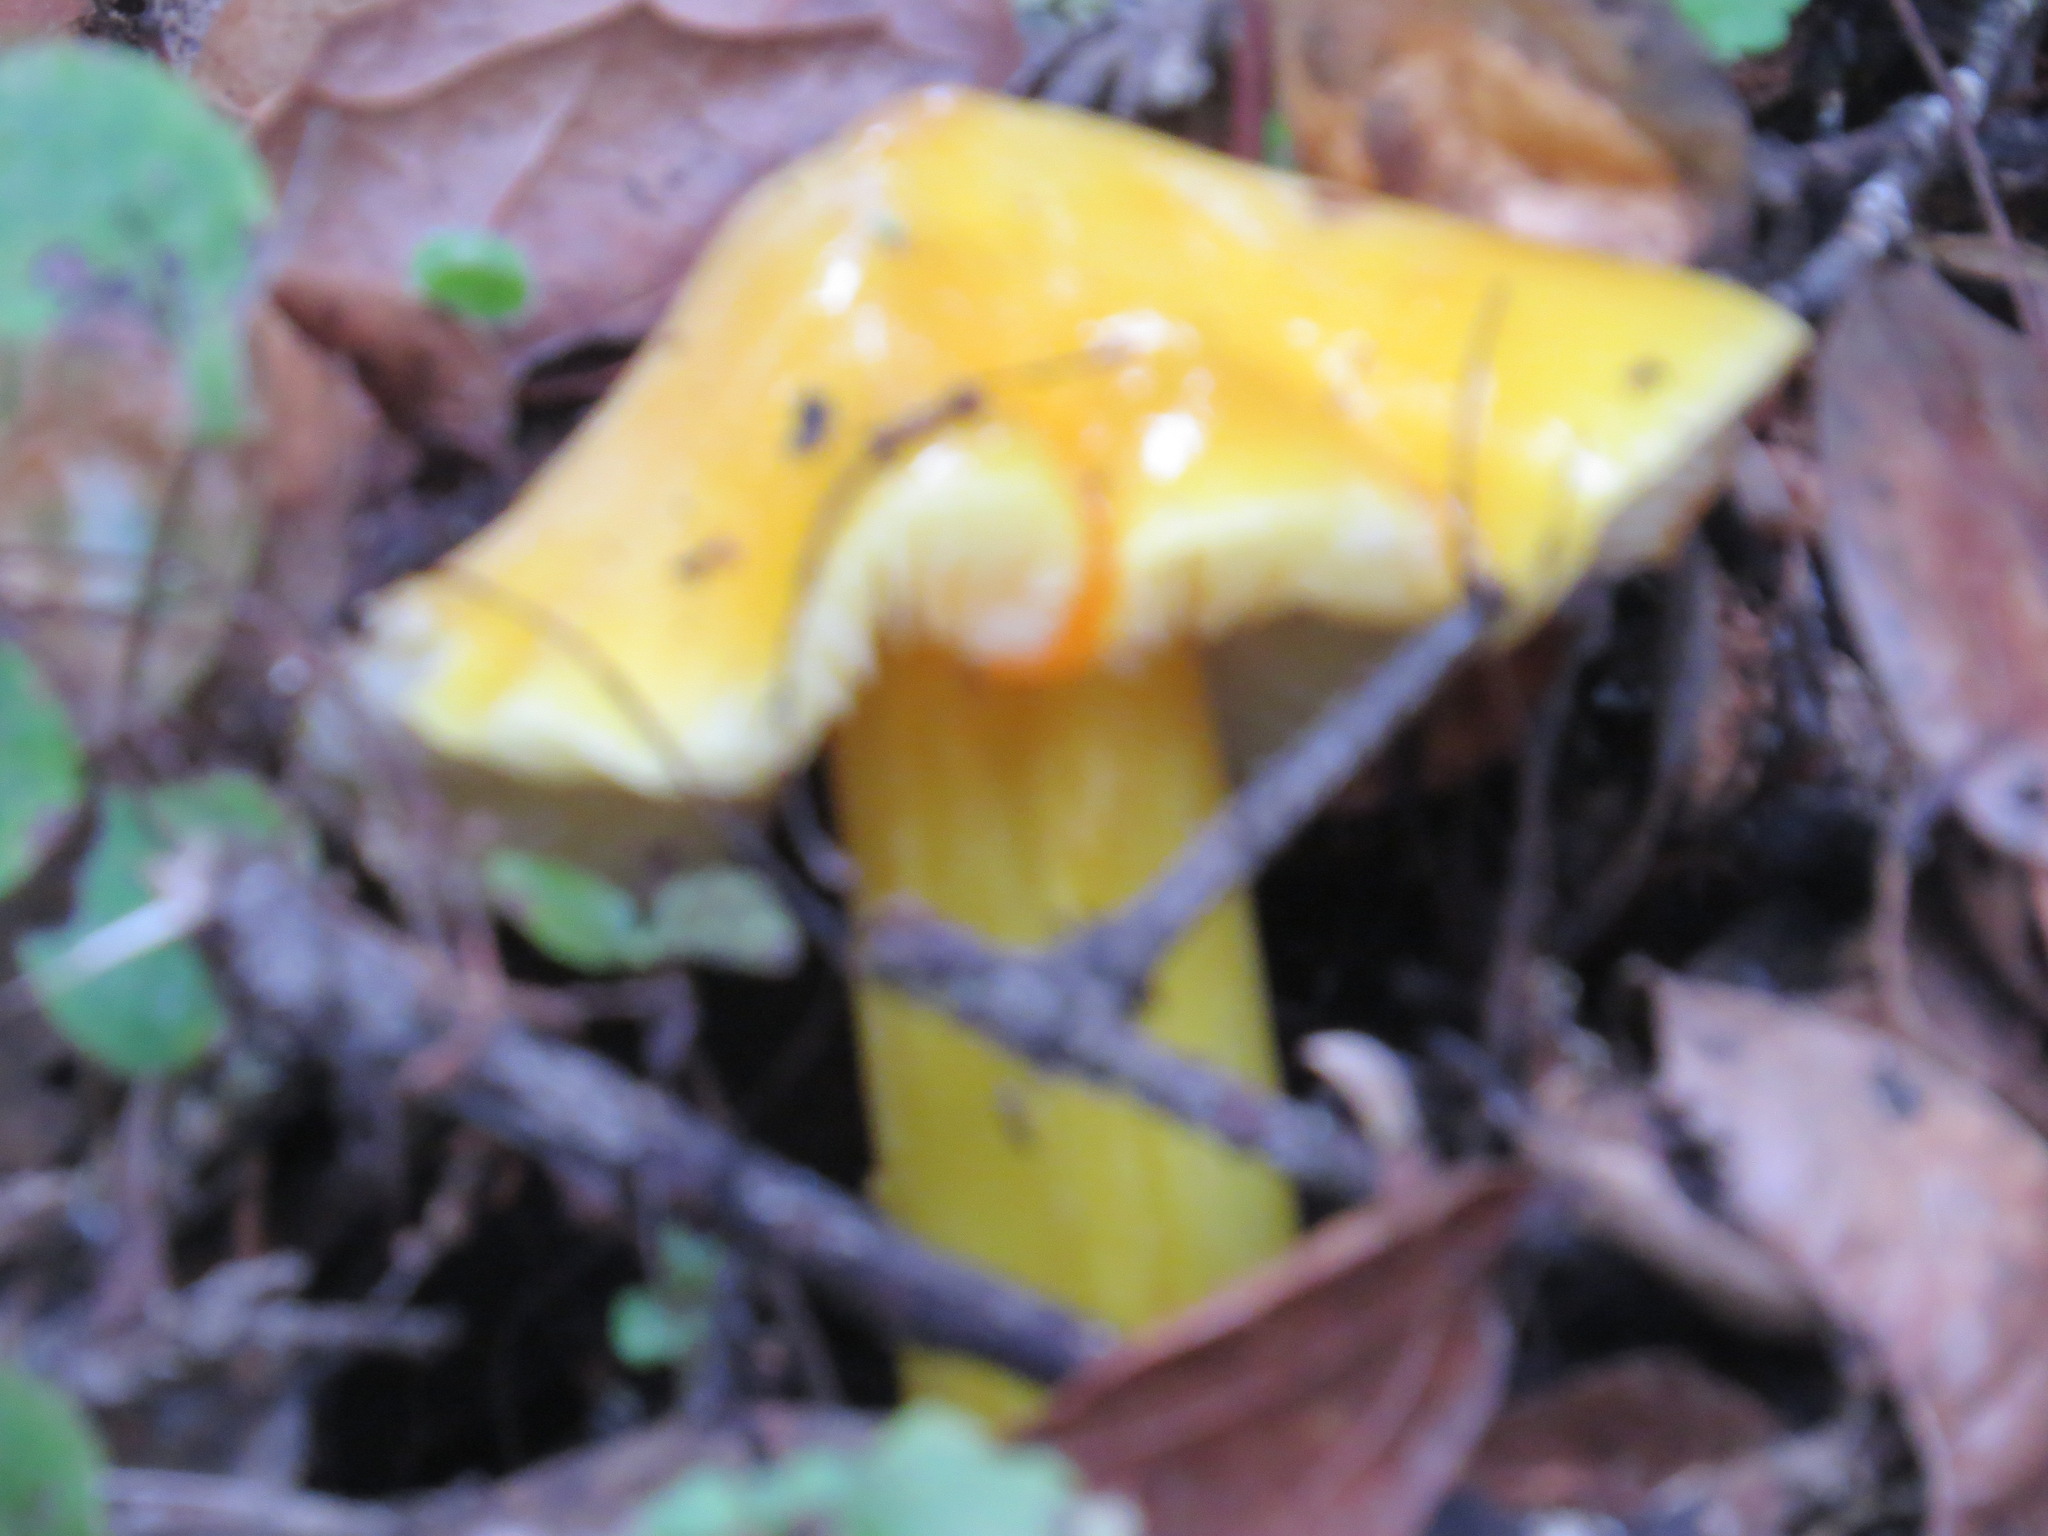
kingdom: Fungi
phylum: Basidiomycota
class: Agaricomycetes
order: Agaricales
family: Hygrophoraceae
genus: Hygrocybe
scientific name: Hygrocybe acutoconica
